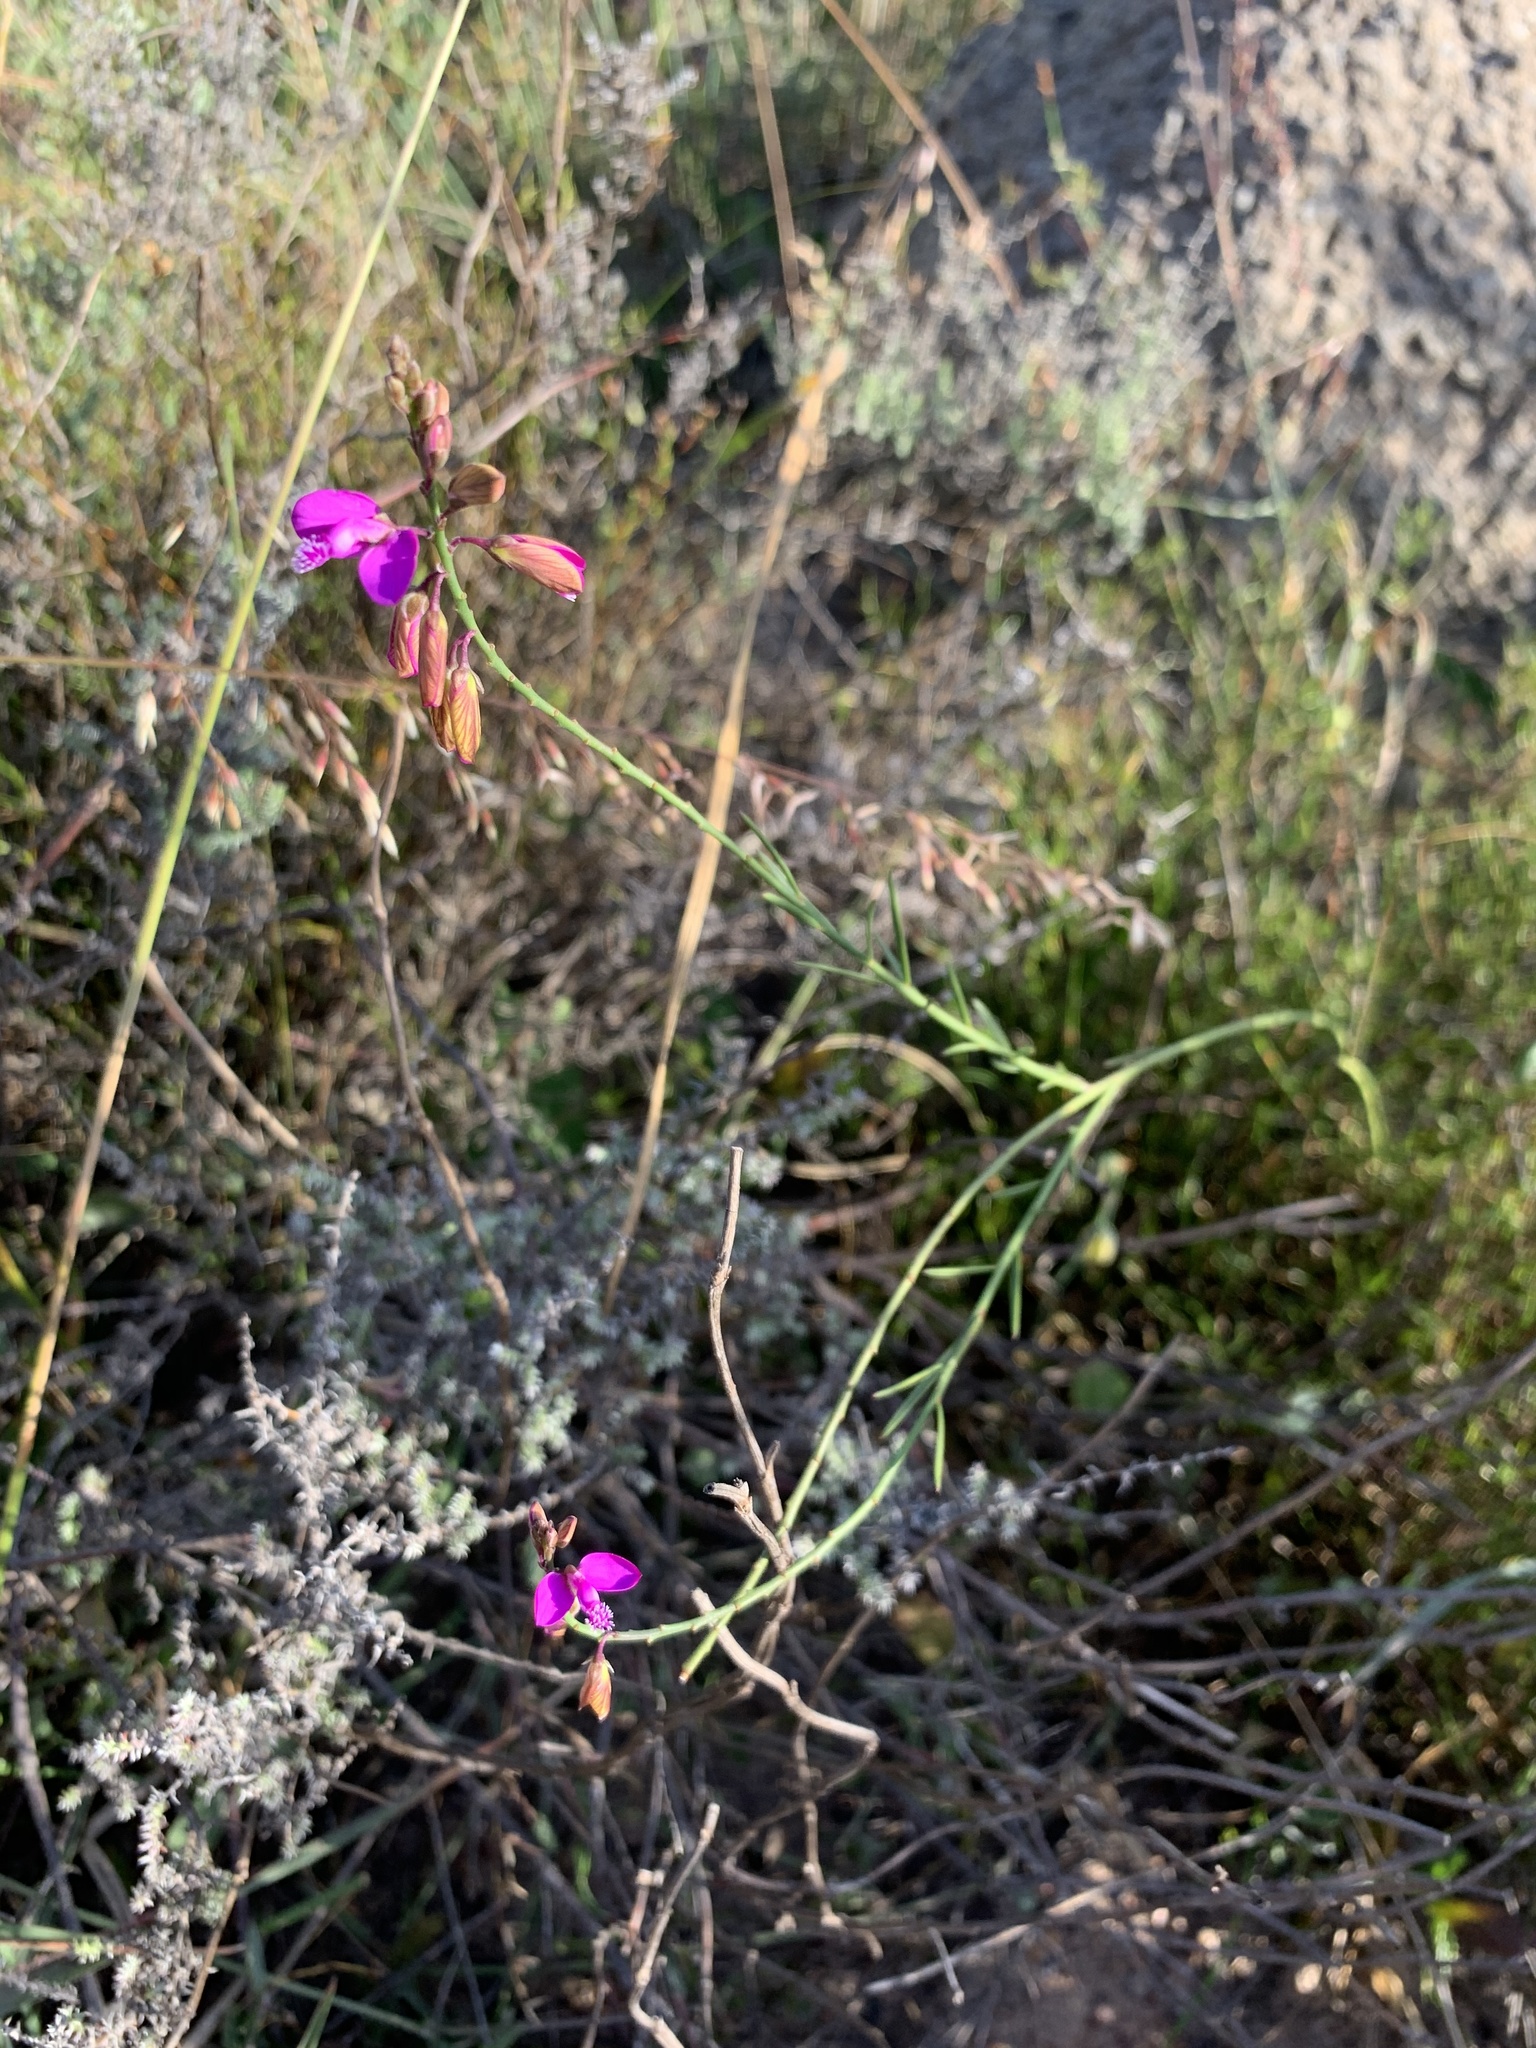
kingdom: Plantae
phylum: Tracheophyta
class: Magnoliopsida
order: Fabales
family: Polygalaceae
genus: Polygala
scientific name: Polygala garcini
